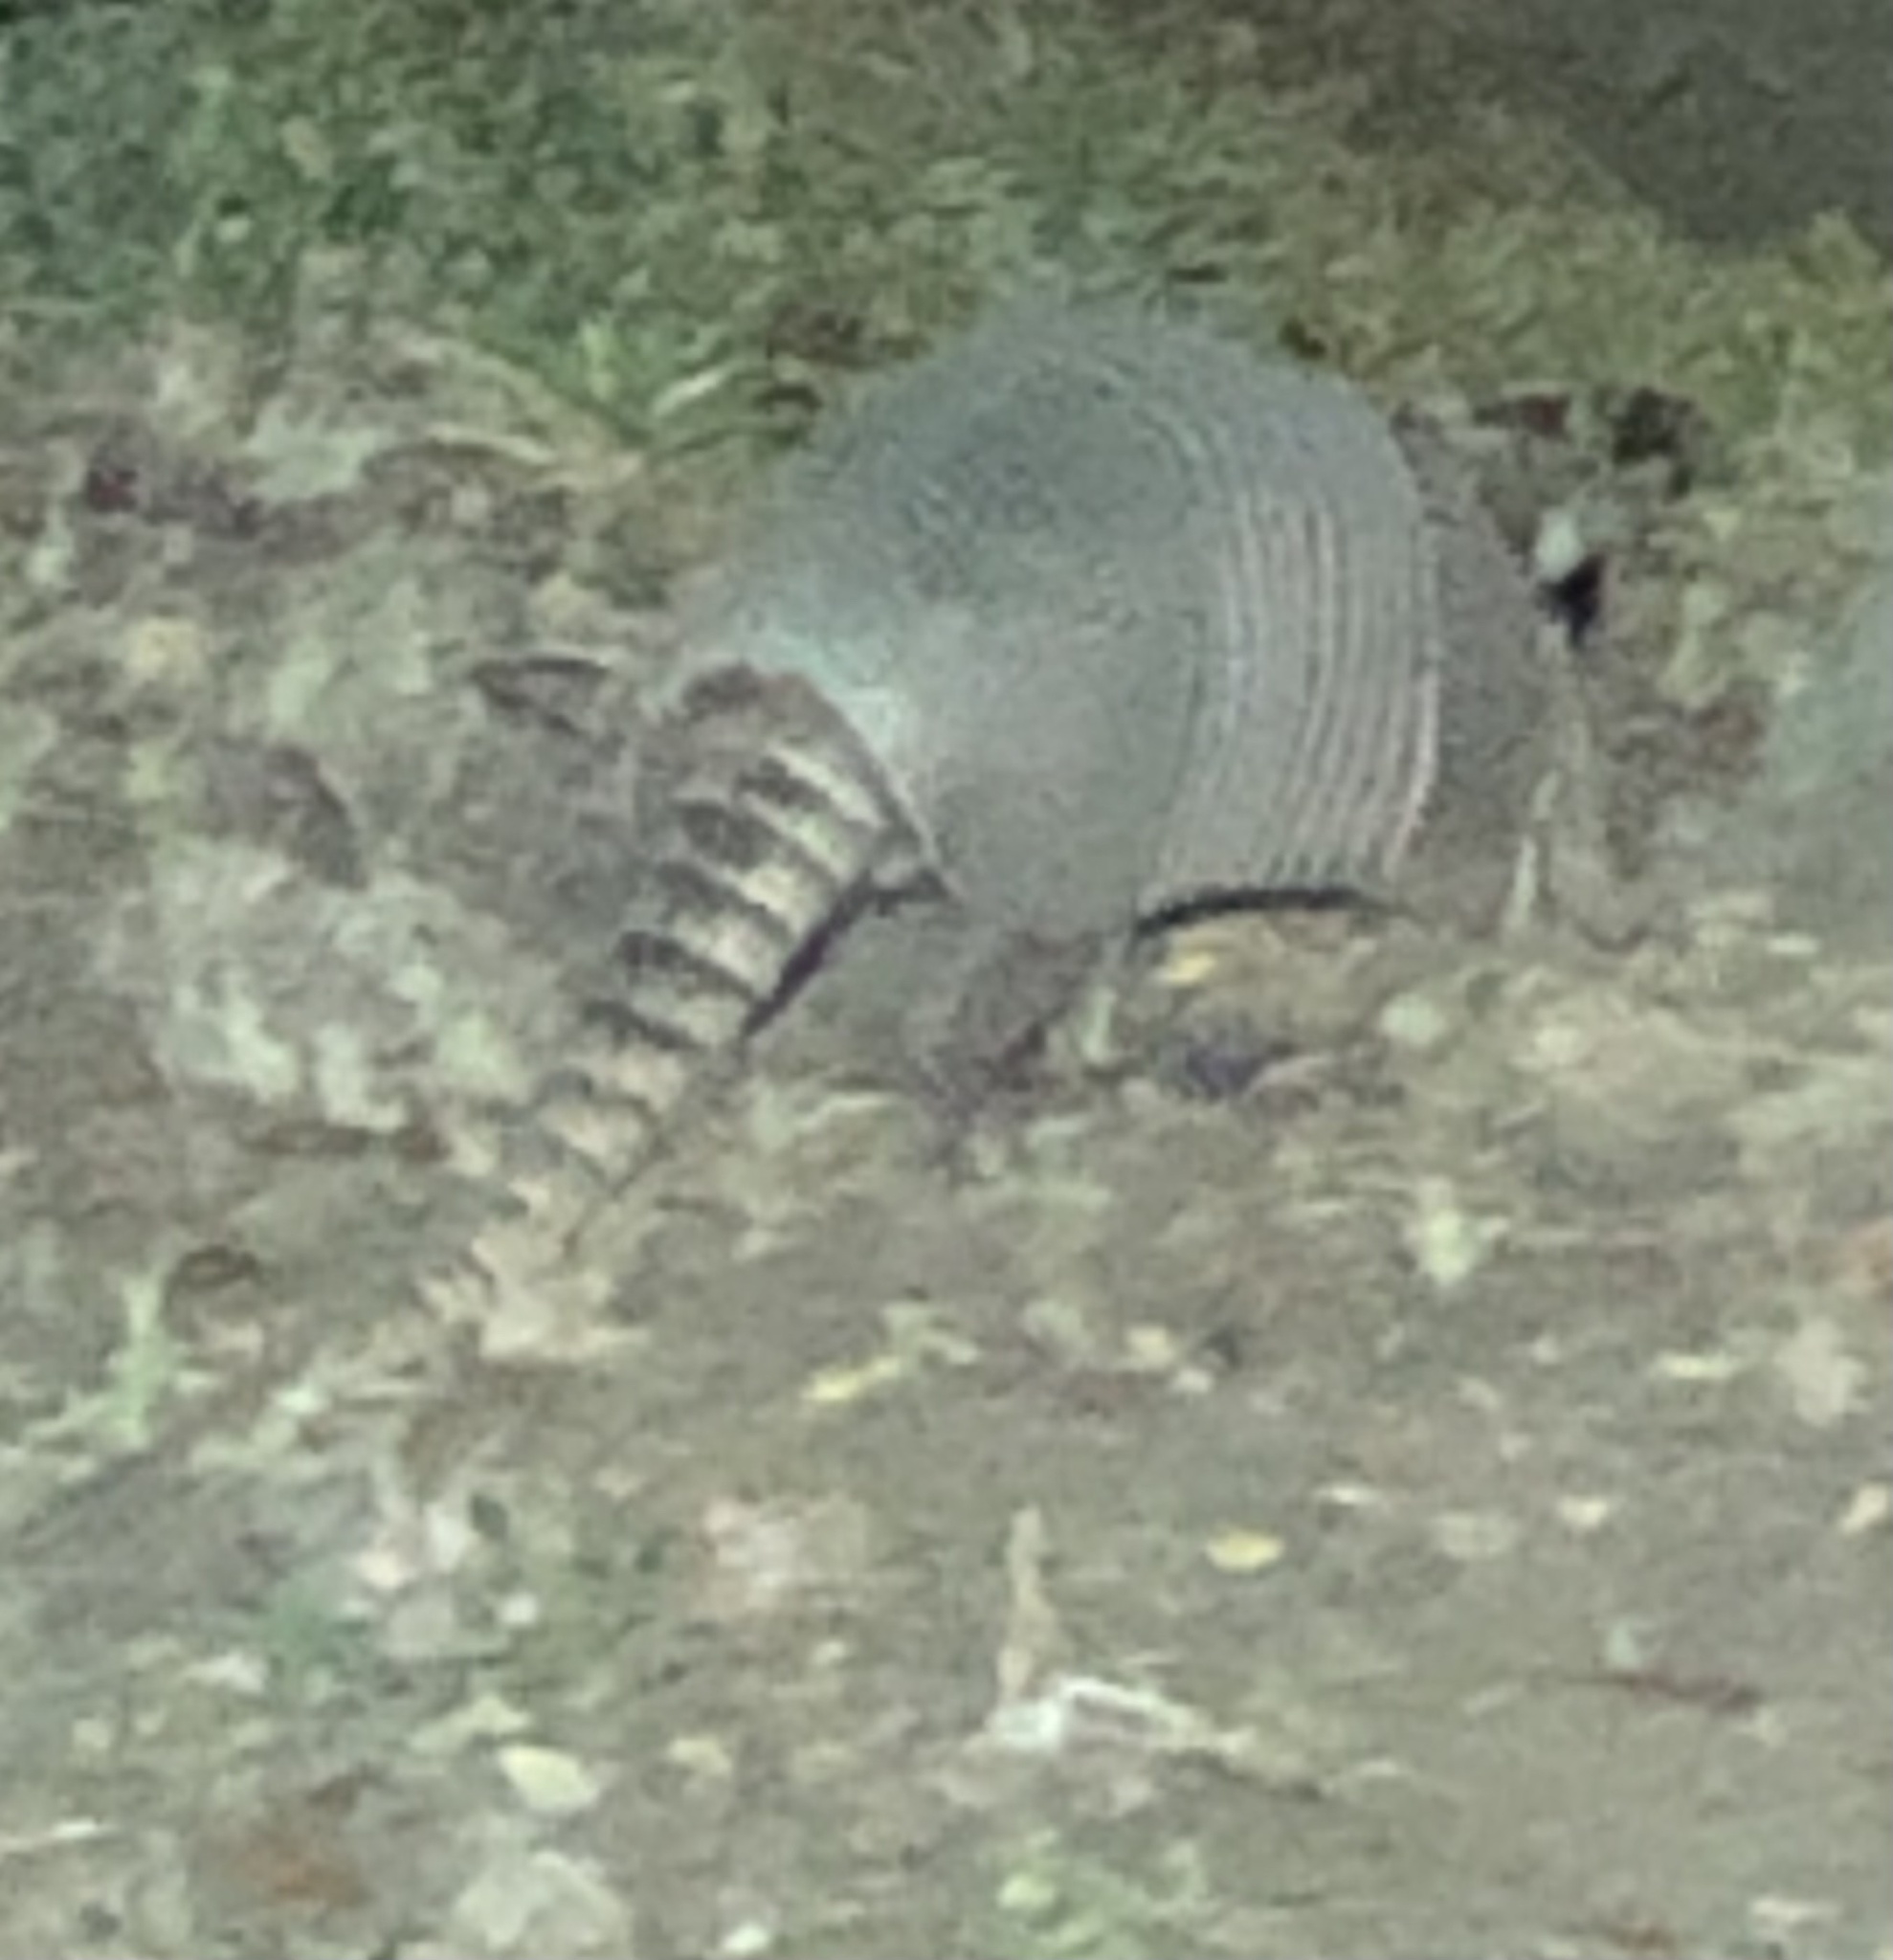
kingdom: Animalia
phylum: Chordata
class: Mammalia
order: Cingulata
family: Dasypodidae
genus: Dasypus
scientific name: Dasypus novemcinctus
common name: Nine-banded armadillo
